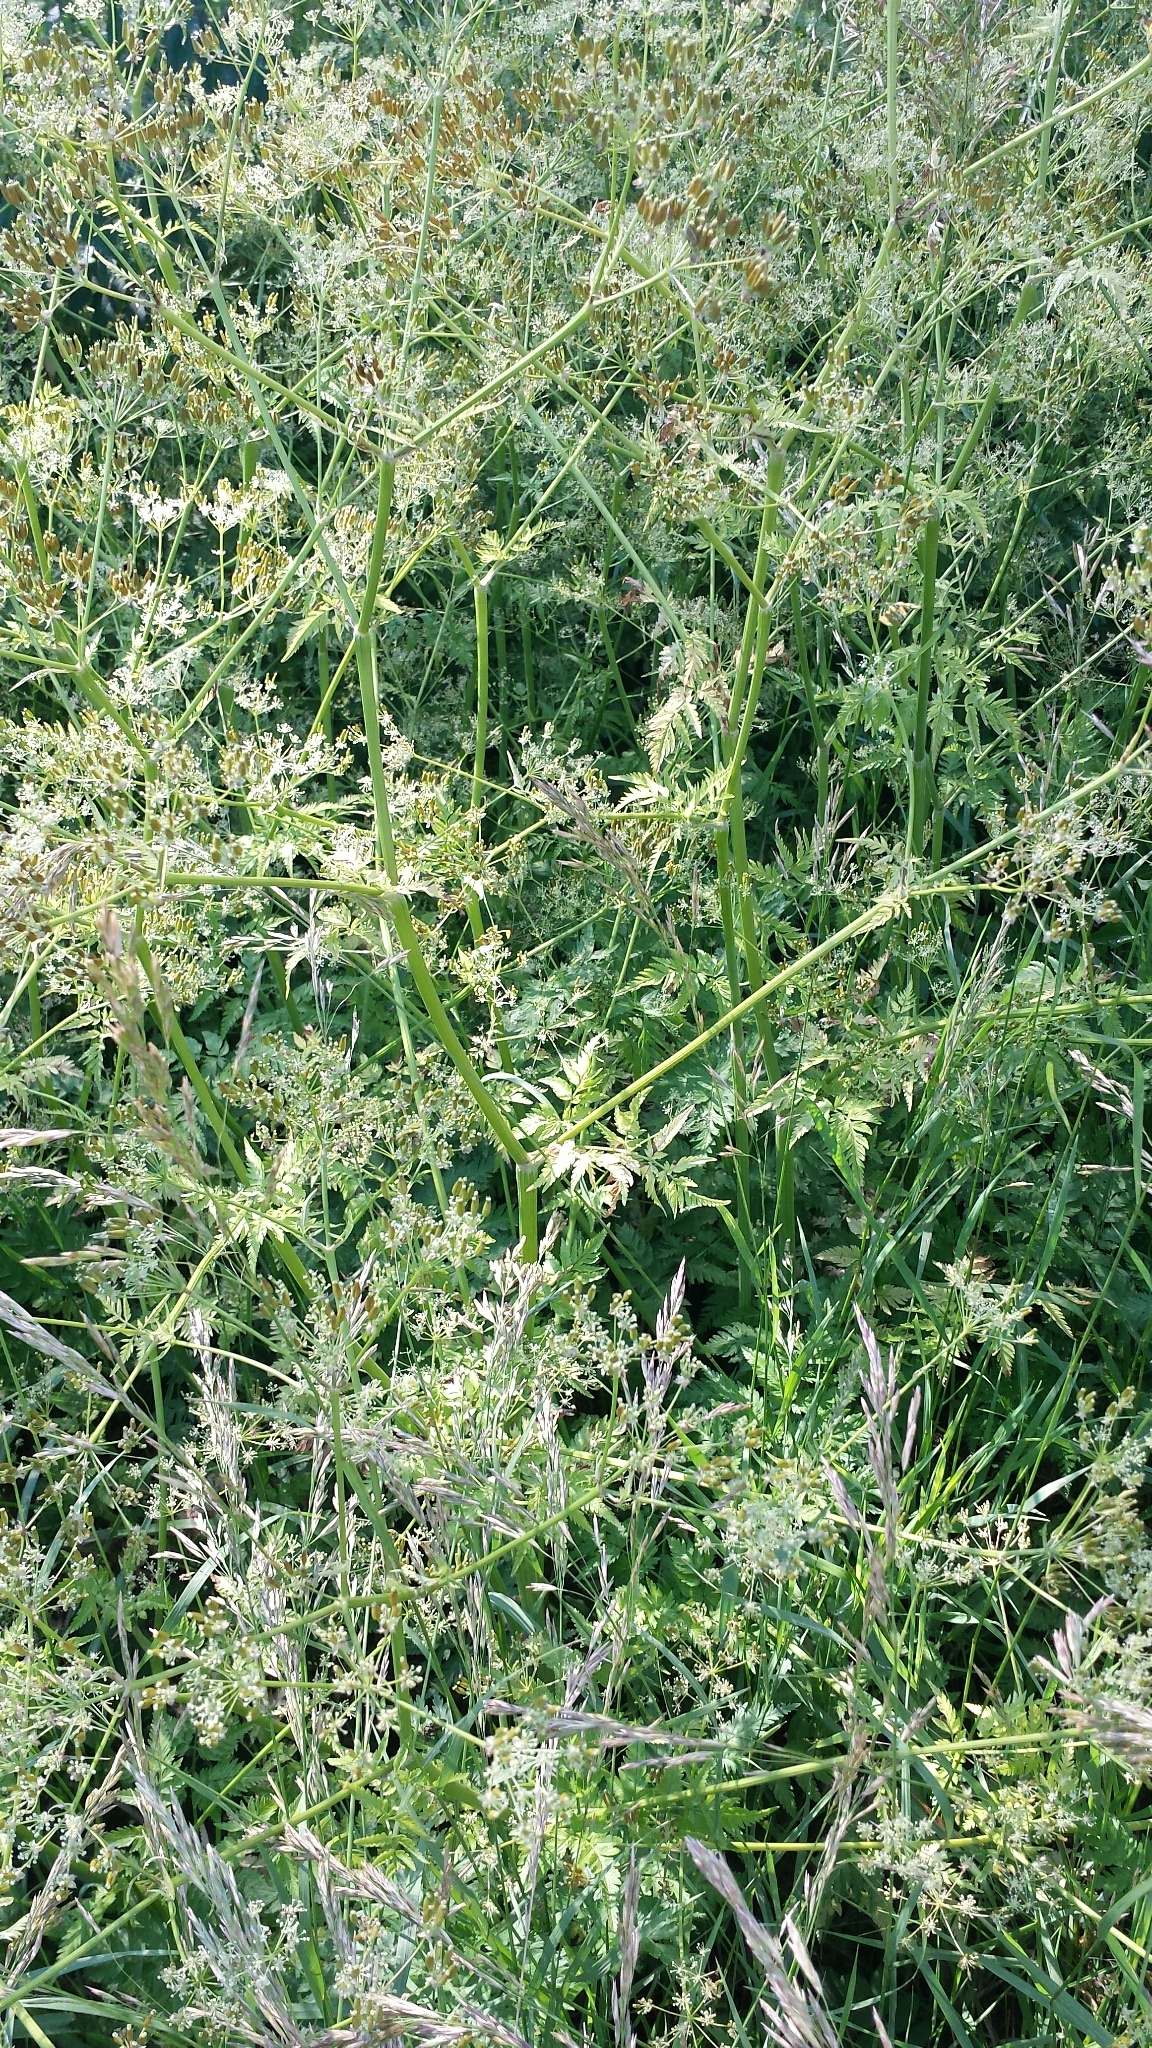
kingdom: Plantae
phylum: Tracheophyta
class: Magnoliopsida
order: Apiales
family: Apiaceae
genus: Anthriscus
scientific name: Anthriscus sylvestris
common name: Cow parsley
